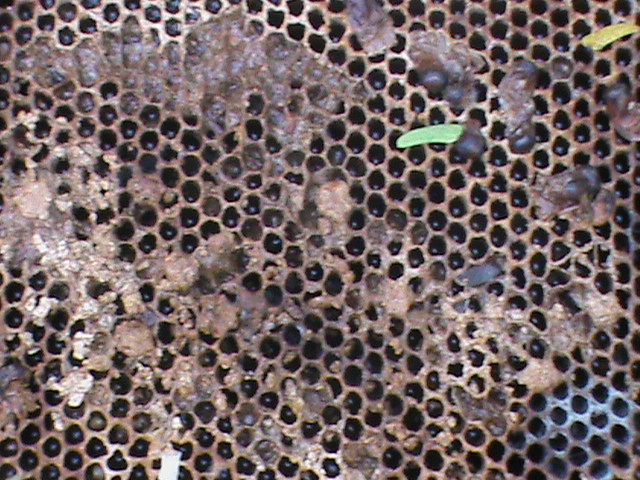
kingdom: Animalia
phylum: Arthropoda
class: Insecta
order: Hymenoptera
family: Apidae
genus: Apis
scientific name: Apis
